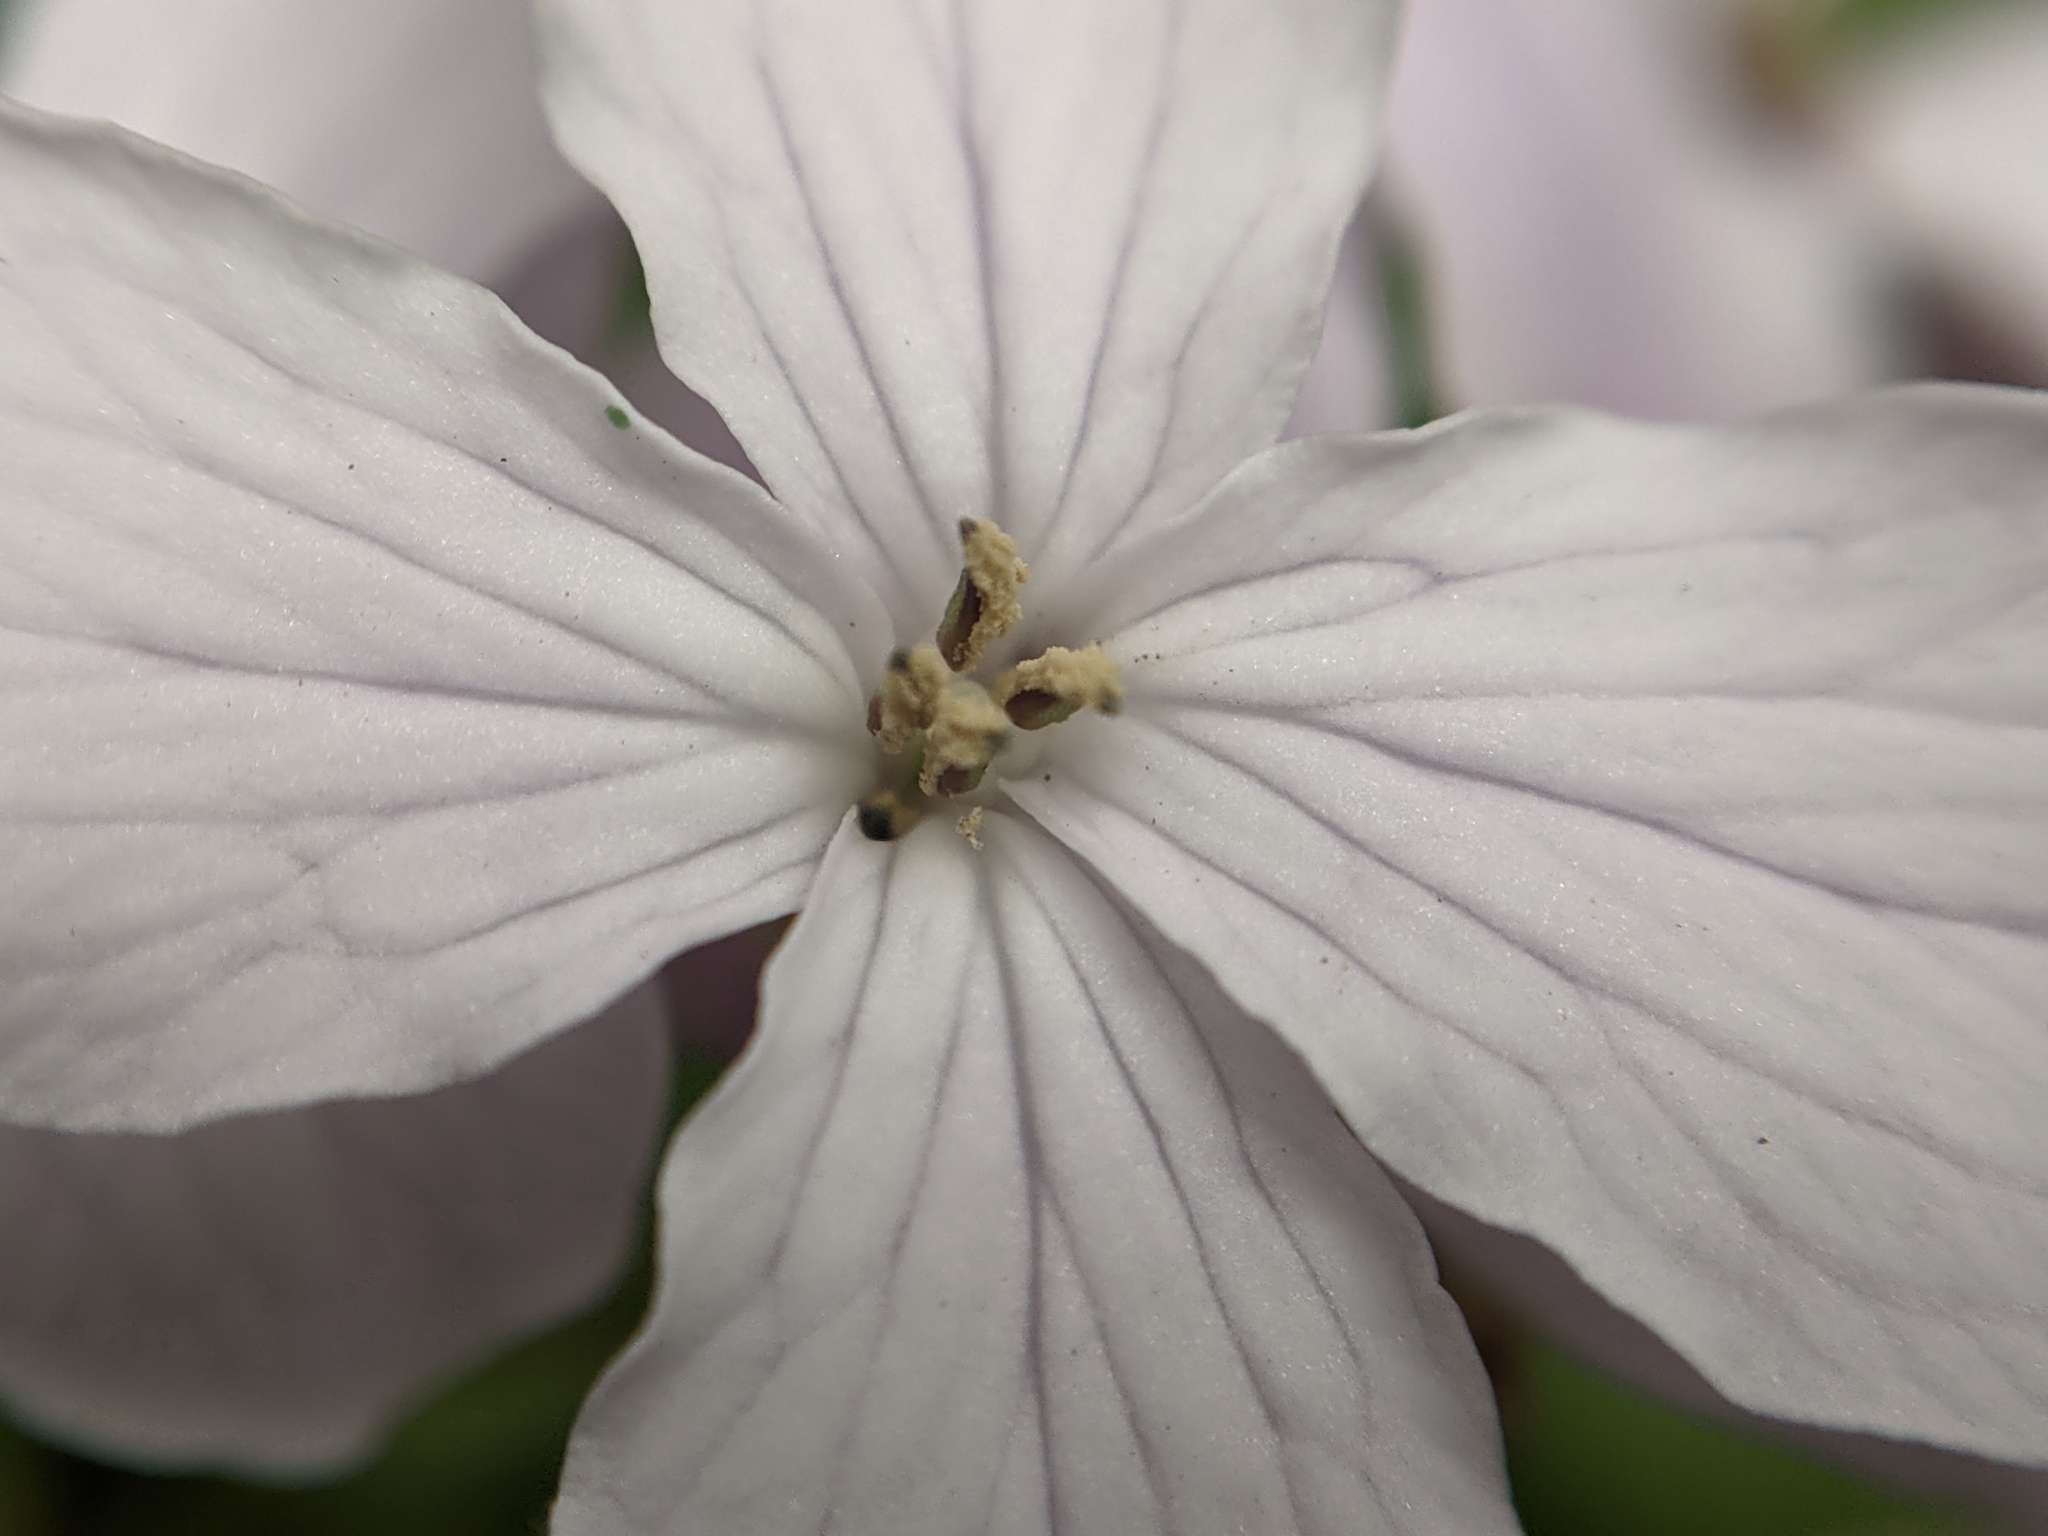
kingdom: Plantae
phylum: Tracheophyta
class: Magnoliopsida
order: Brassicales
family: Brassicaceae
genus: Lunaria
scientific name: Lunaria rediviva
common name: Perennial honesty
